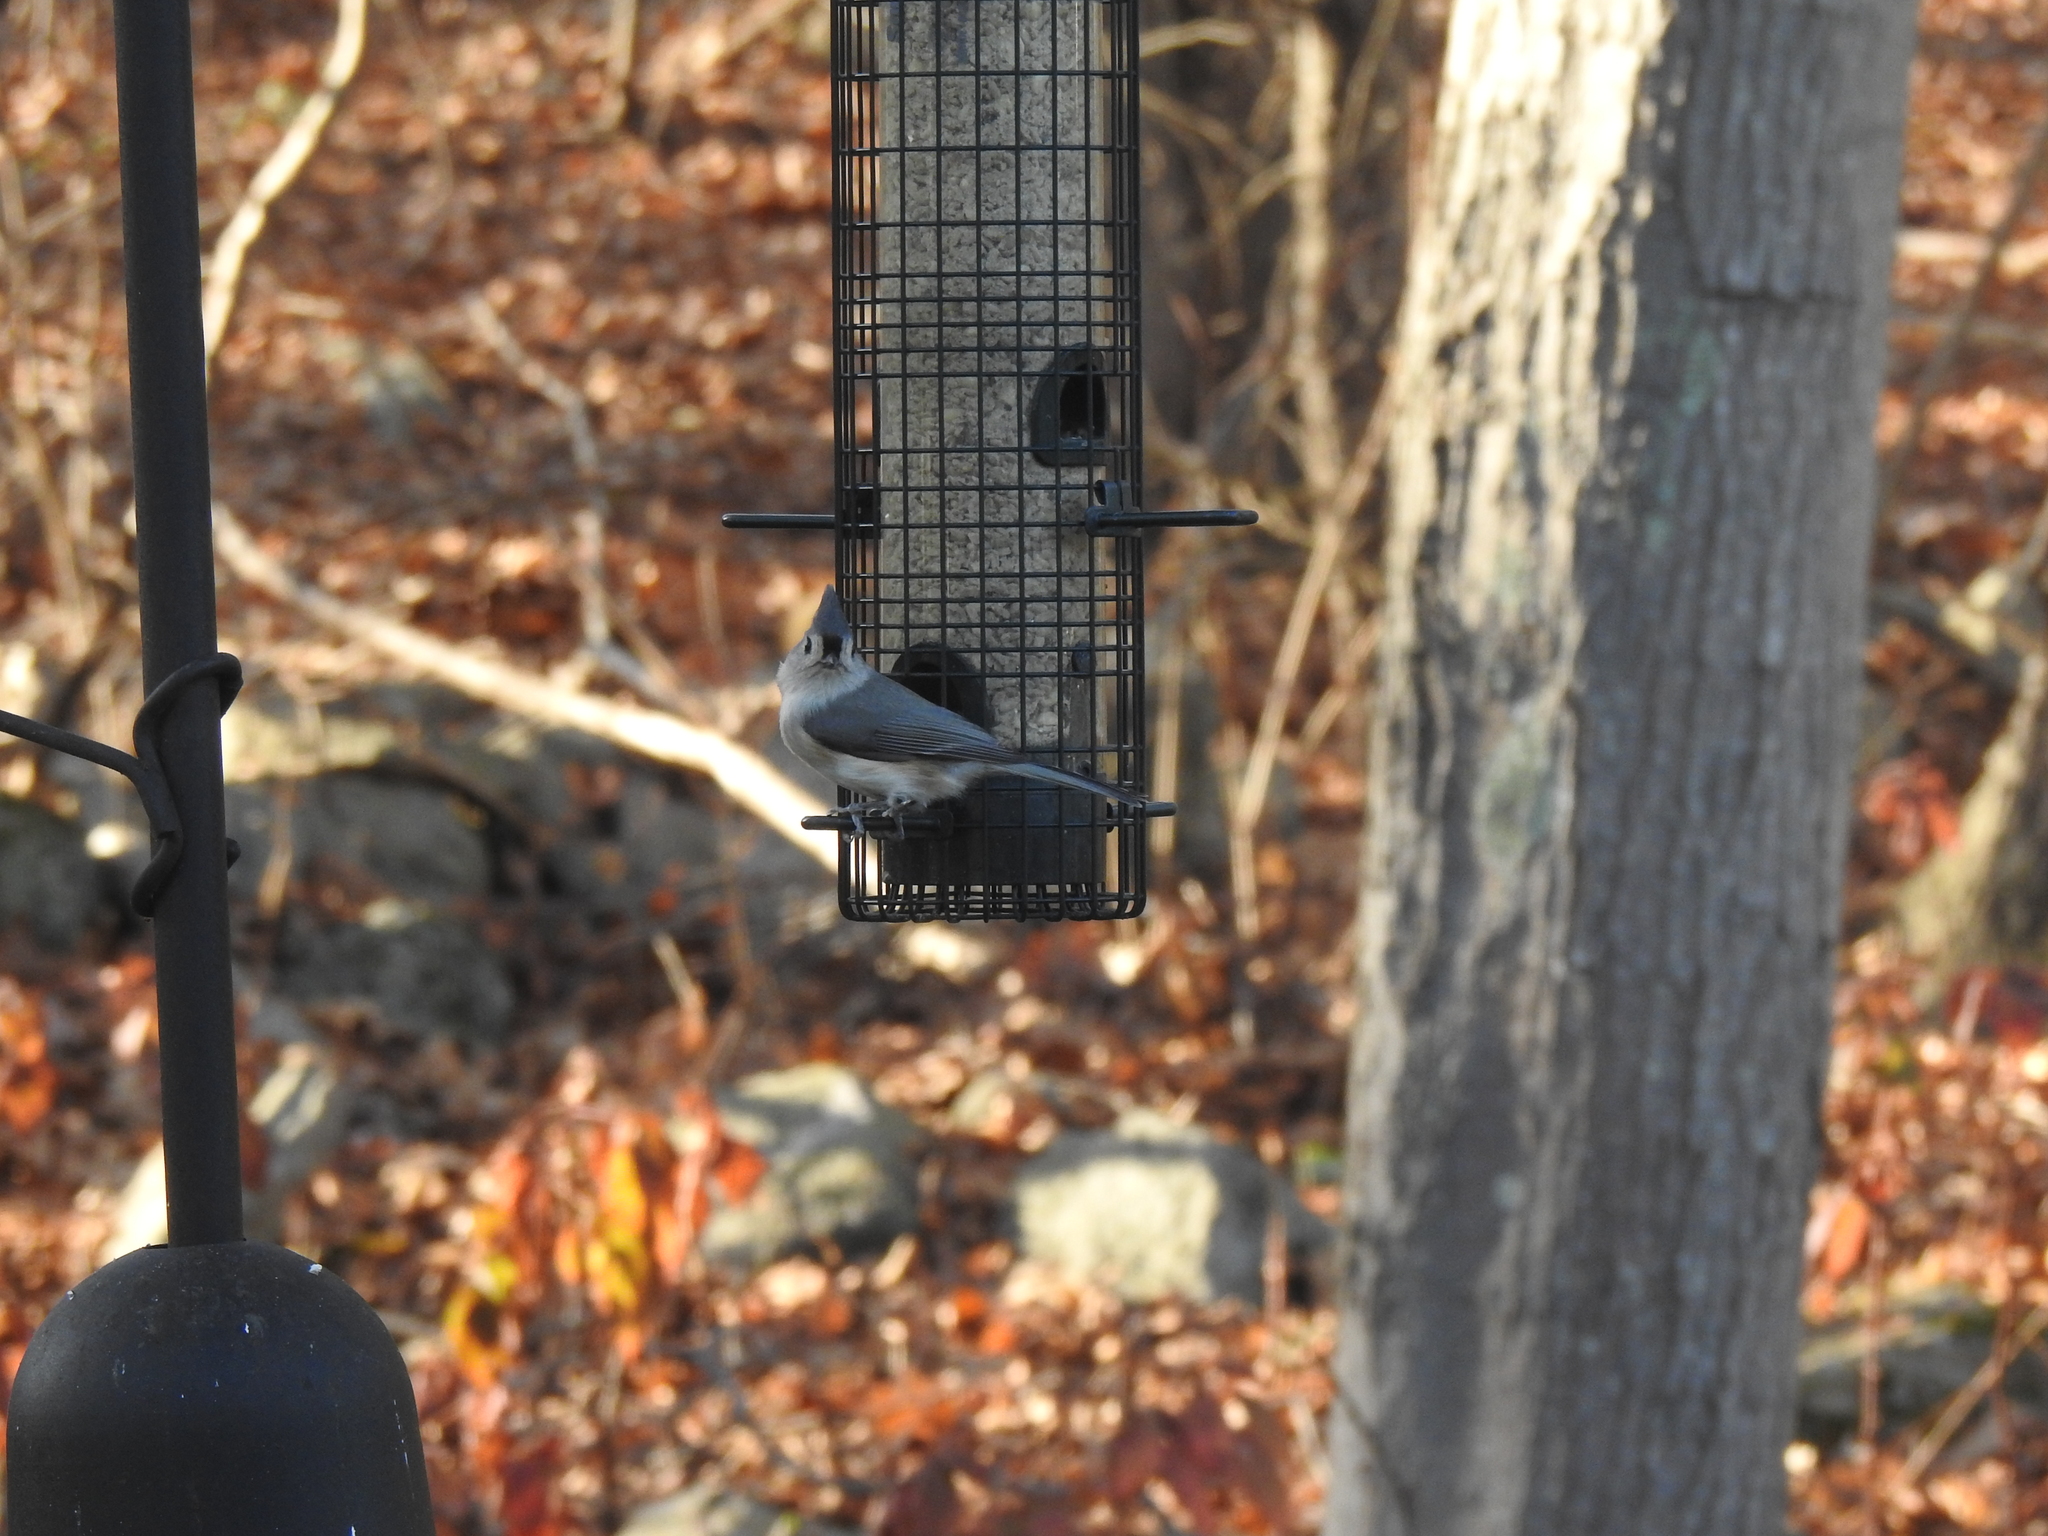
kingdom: Animalia
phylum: Chordata
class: Aves
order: Passeriformes
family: Paridae
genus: Baeolophus
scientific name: Baeolophus bicolor
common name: Tufted titmouse
